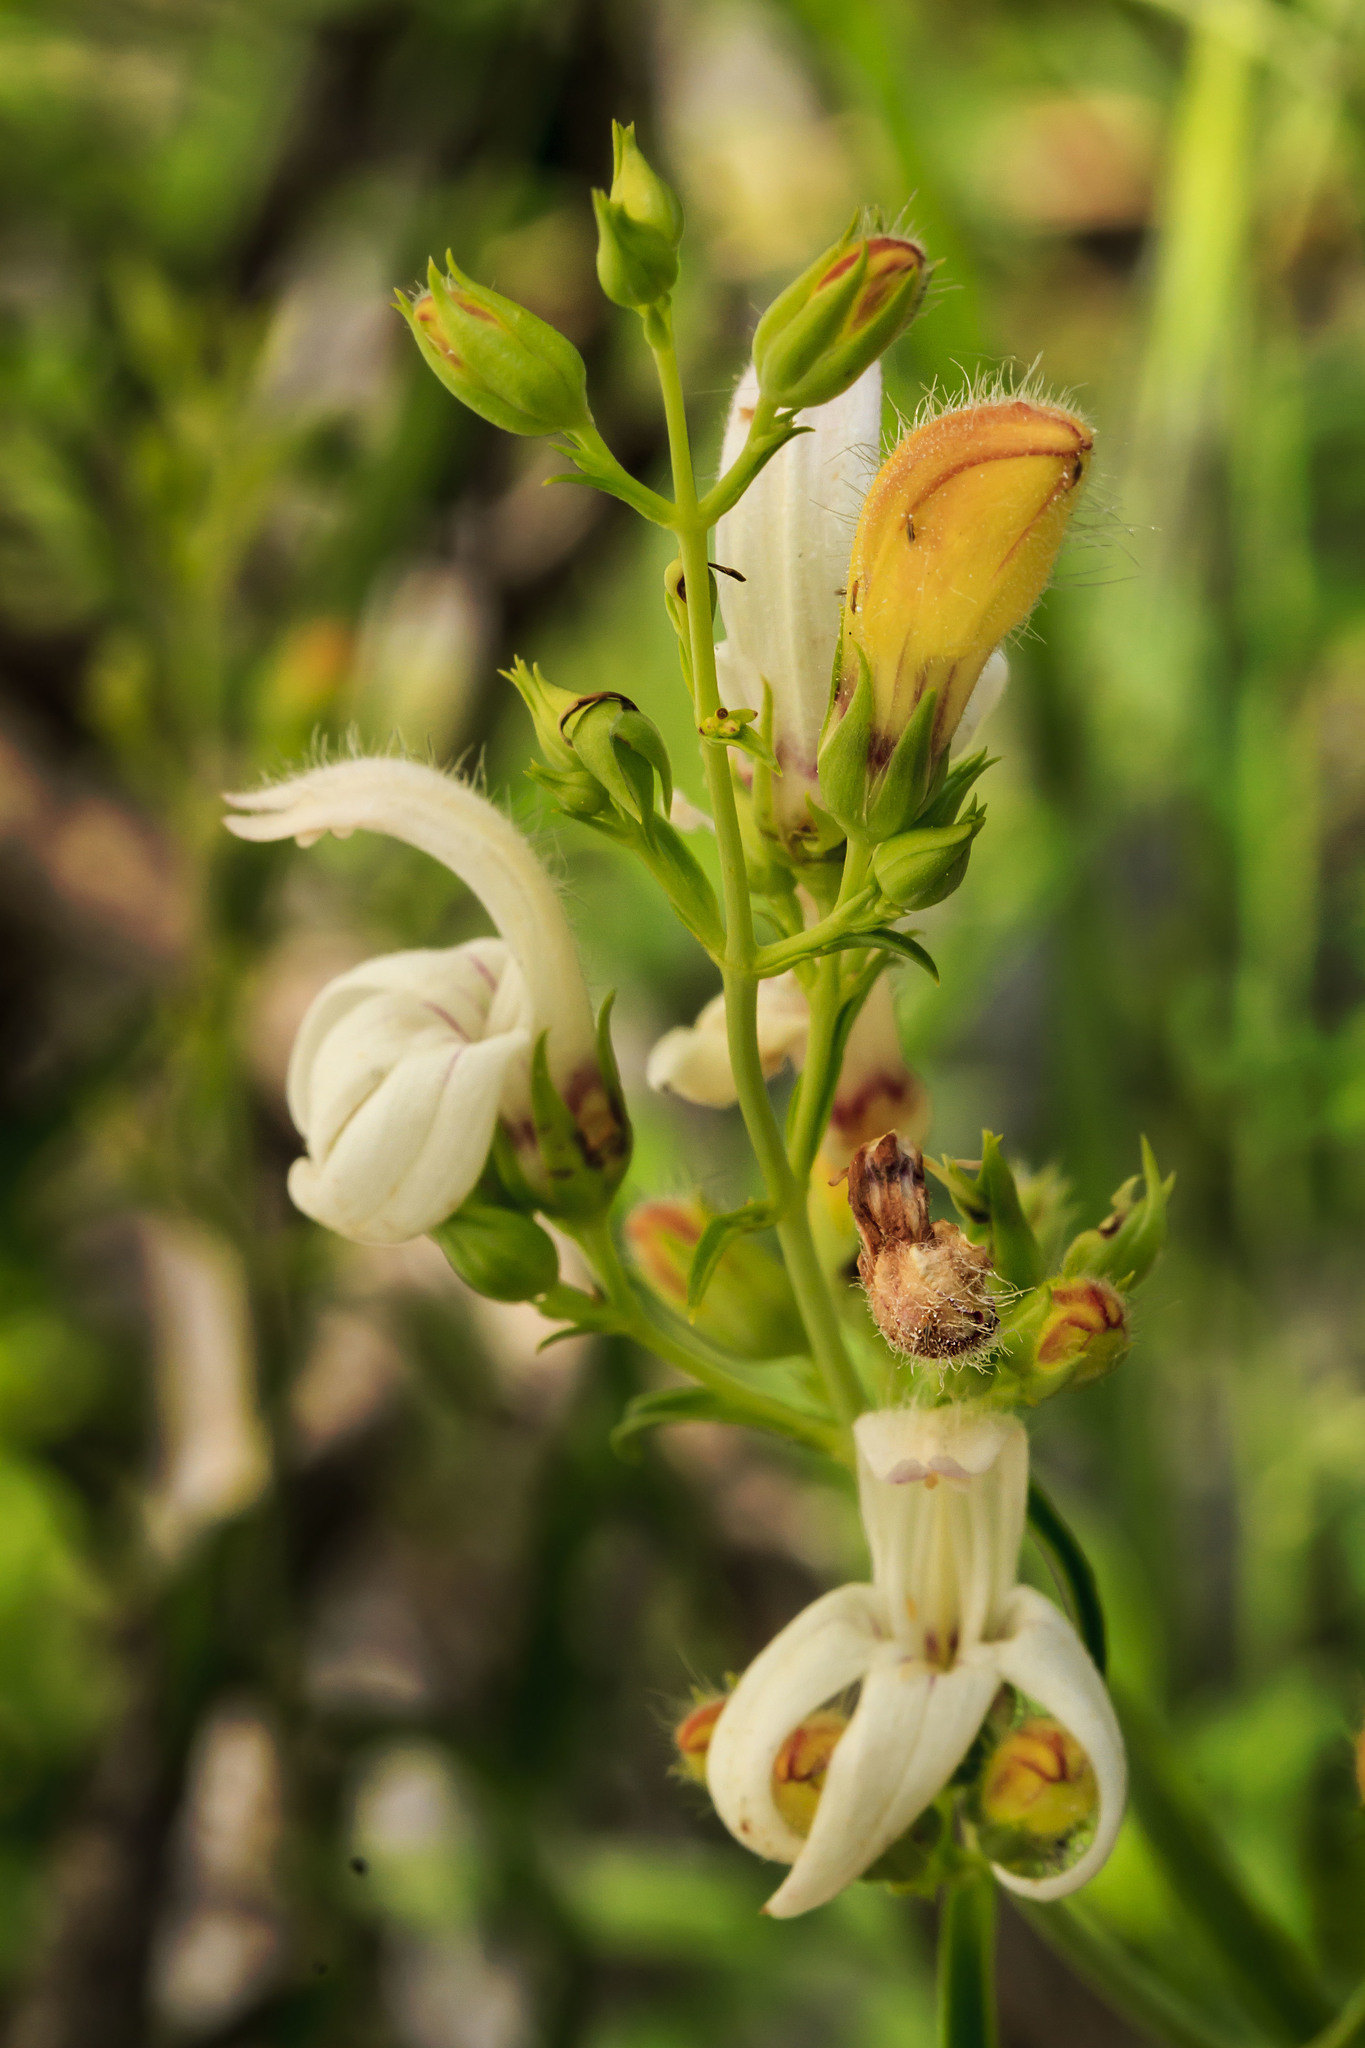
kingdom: Plantae
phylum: Tracheophyta
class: Magnoliopsida
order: Lamiales
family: Plantaginaceae
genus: Keckiella
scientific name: Keckiella breviflora
